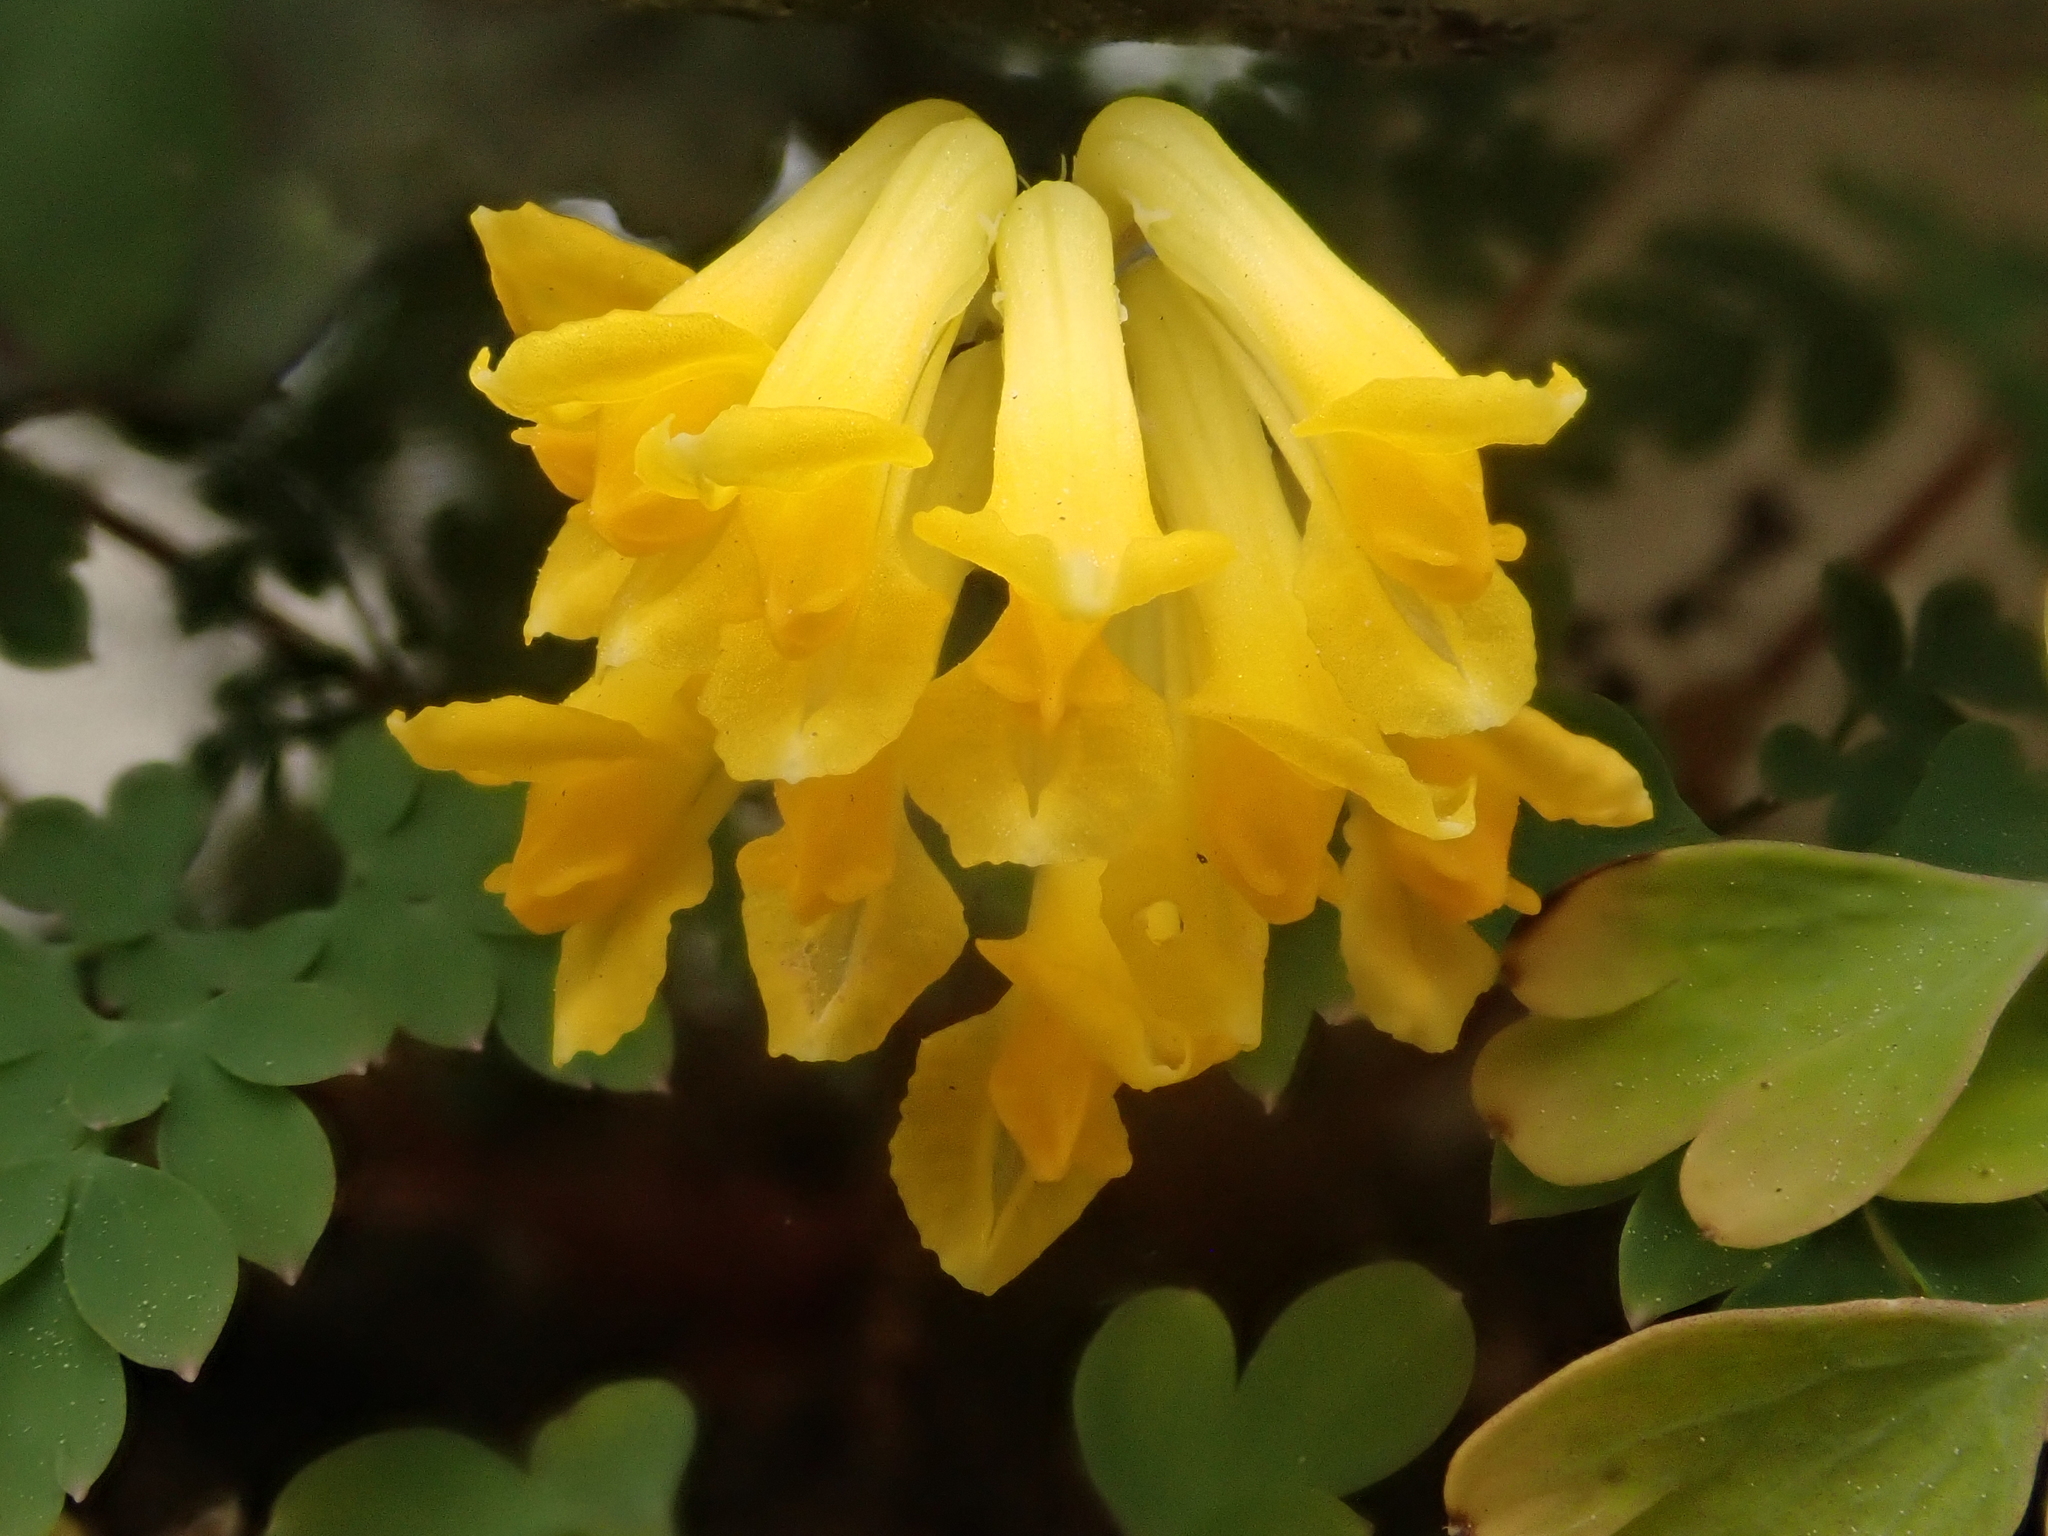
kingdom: Plantae
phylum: Tracheophyta
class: Magnoliopsida
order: Ranunculales
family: Papaveraceae
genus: Pseudofumaria
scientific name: Pseudofumaria lutea
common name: Yellow corydalis
